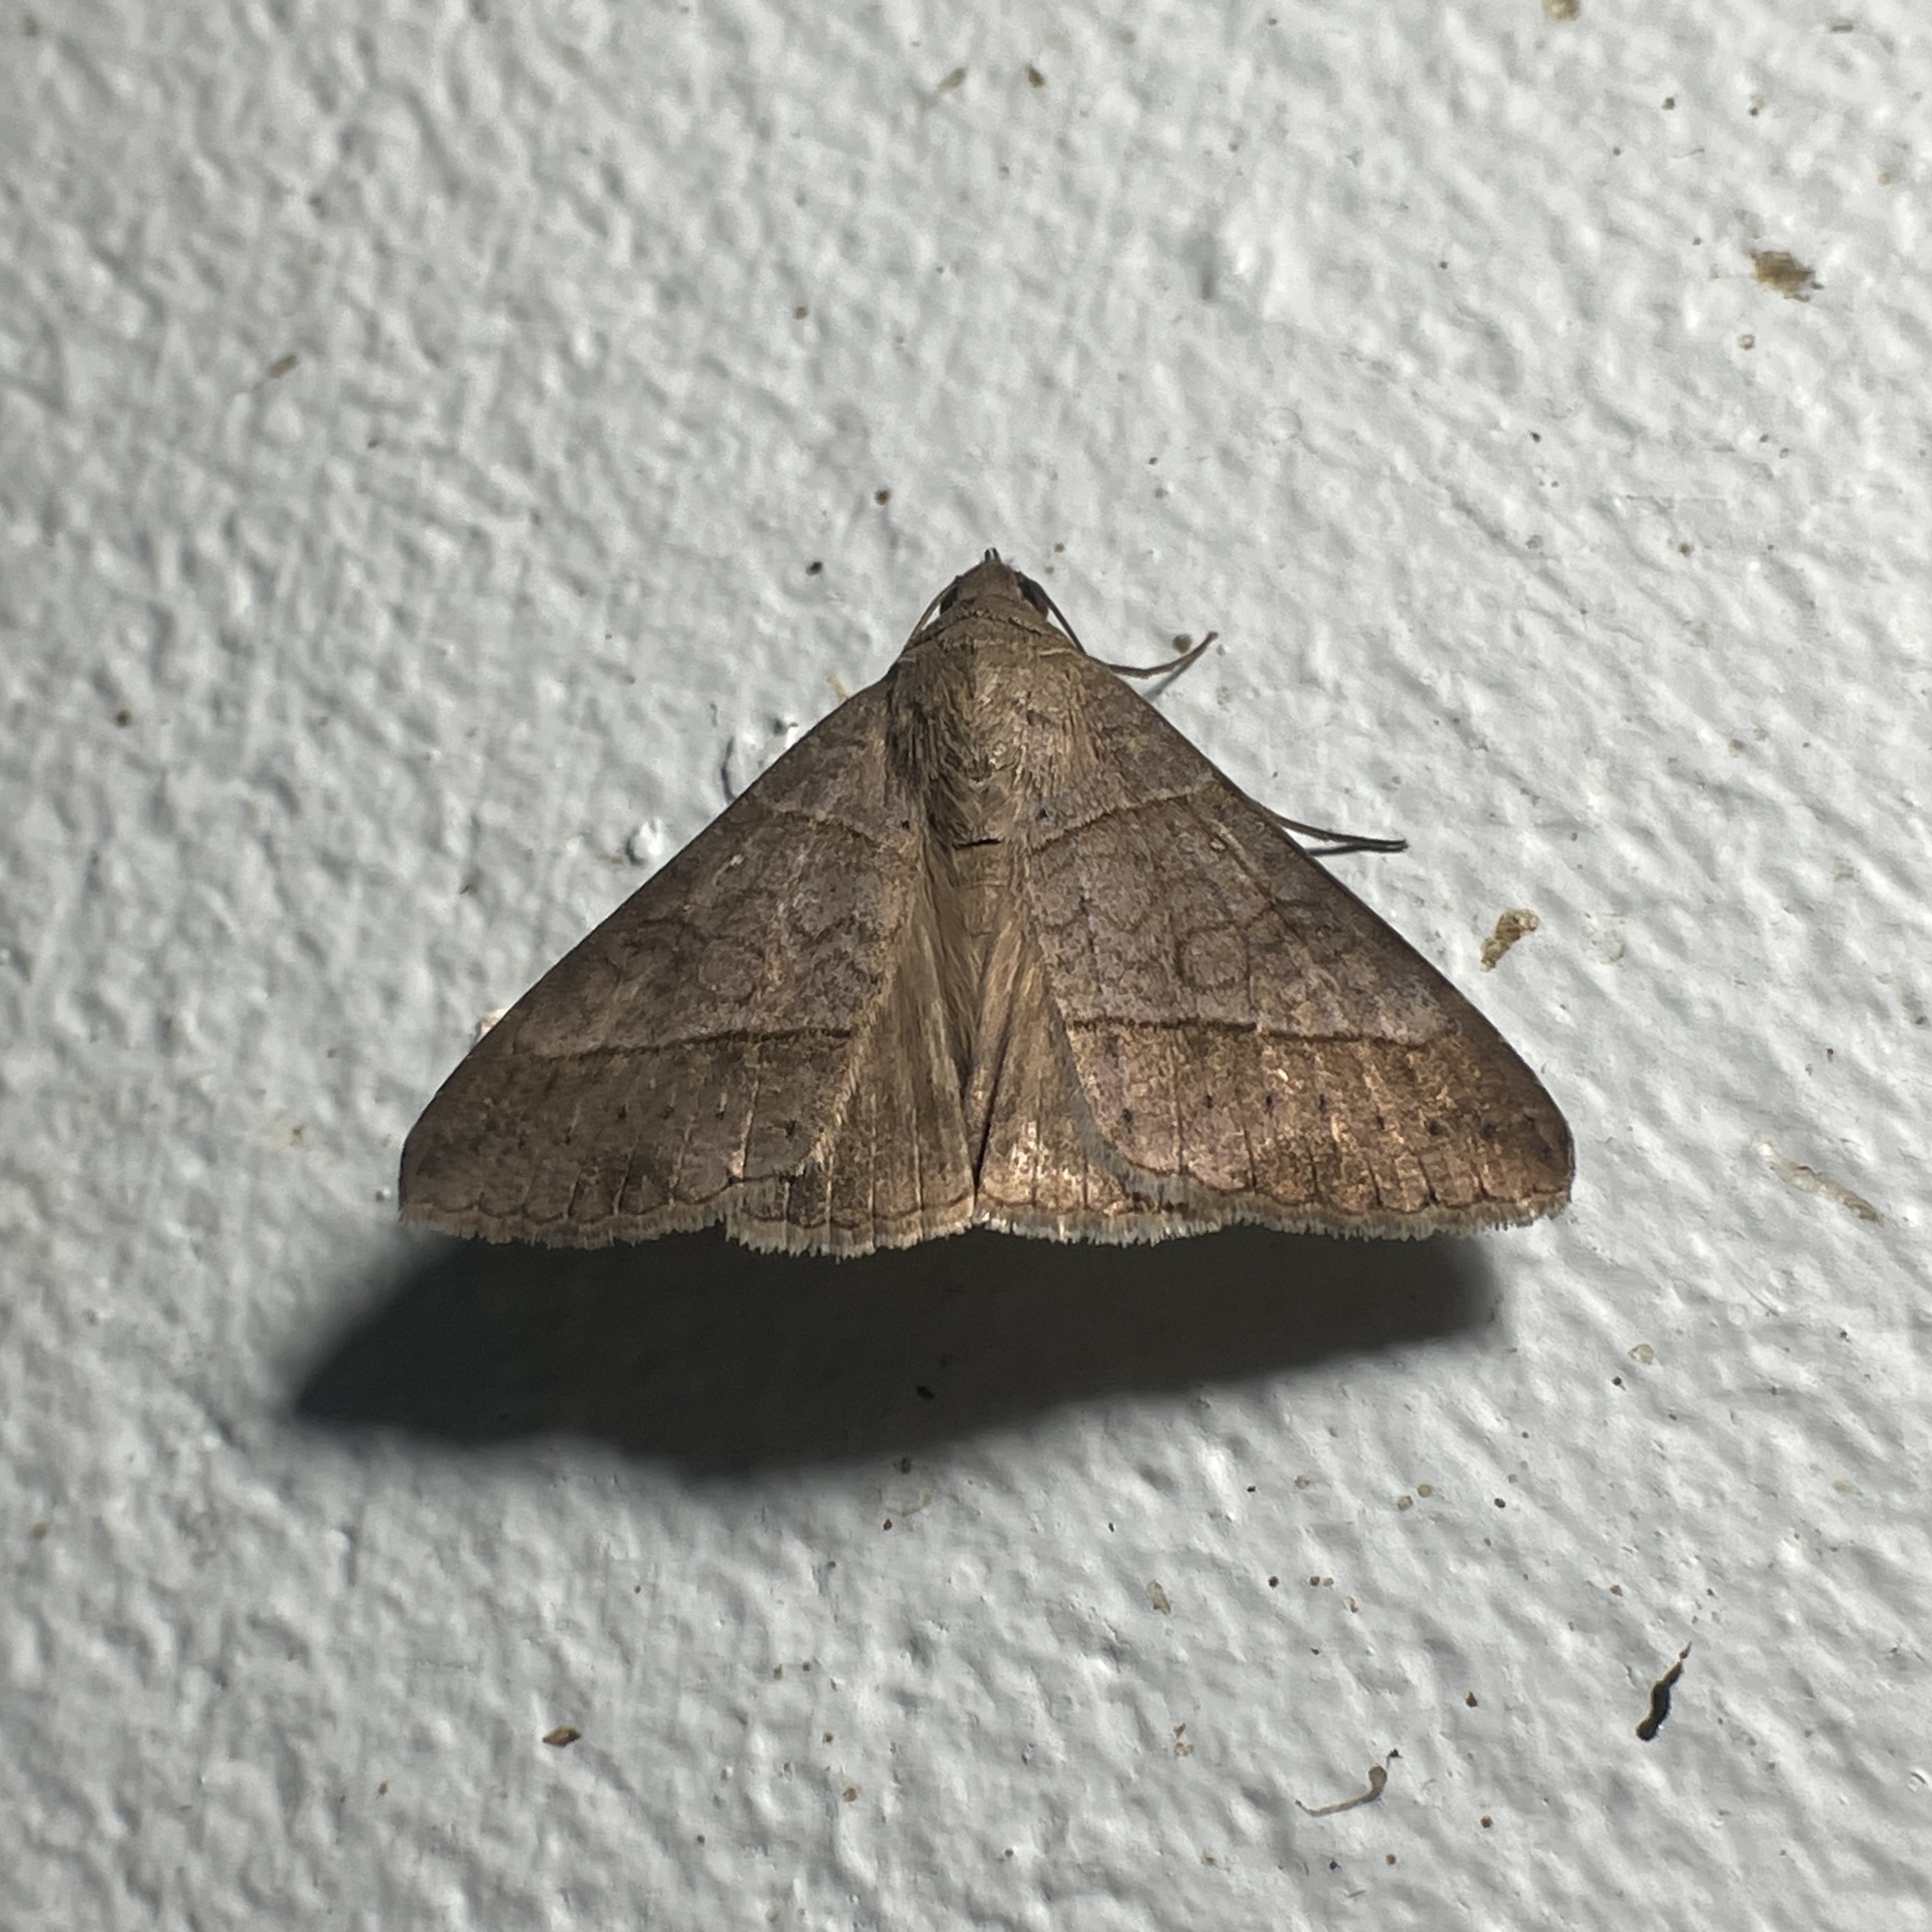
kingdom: Animalia
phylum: Arthropoda
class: Insecta
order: Lepidoptera
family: Erebidae
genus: Mocis
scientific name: Mocis latipes
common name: Striped grass looper
